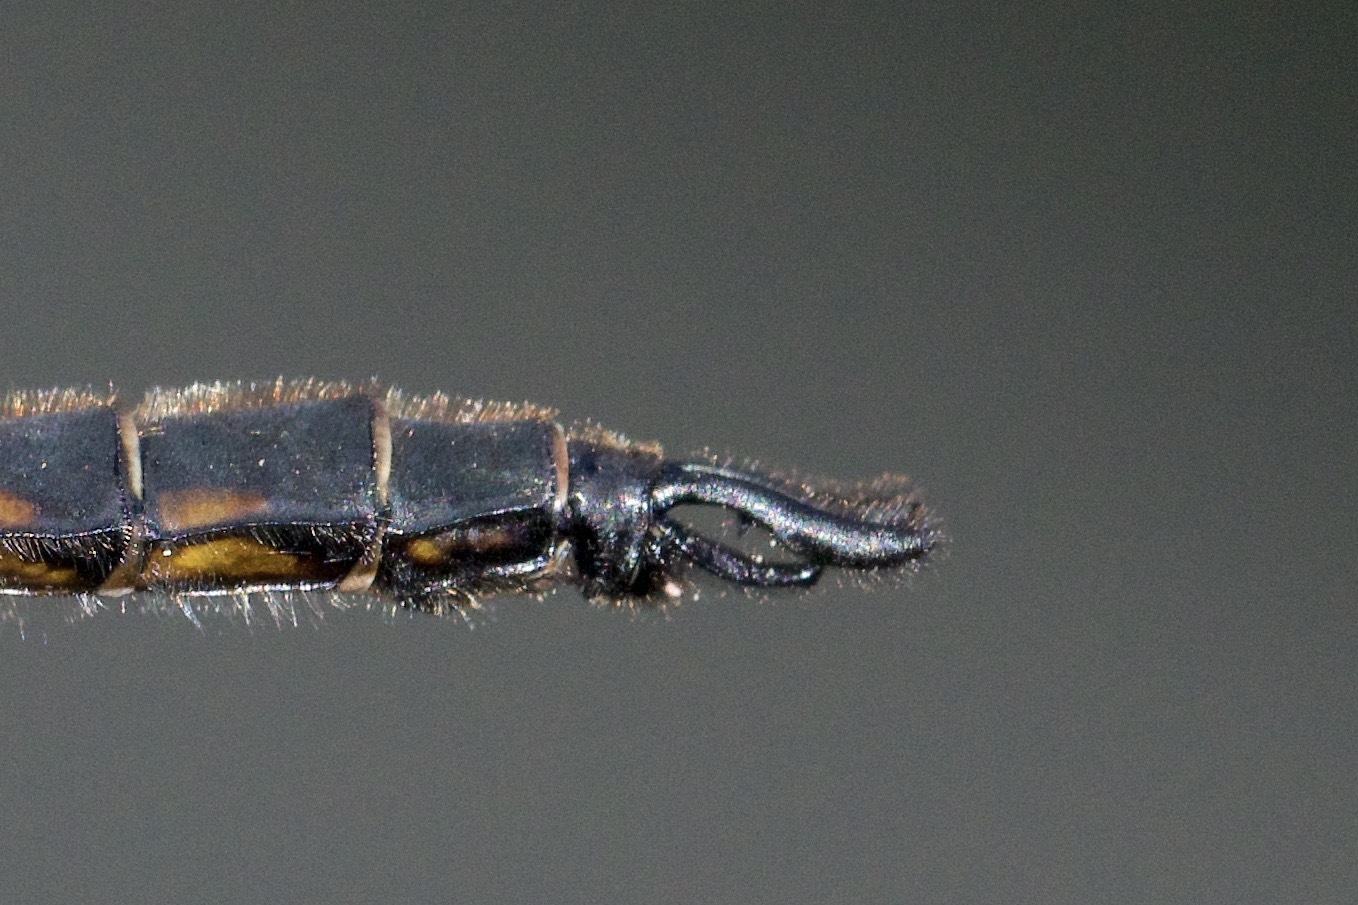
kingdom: Animalia
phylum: Arthropoda
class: Insecta
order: Odonata
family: Corduliidae
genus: Epitheca
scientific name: Epitheca spinigera
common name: Spiny baskettail
